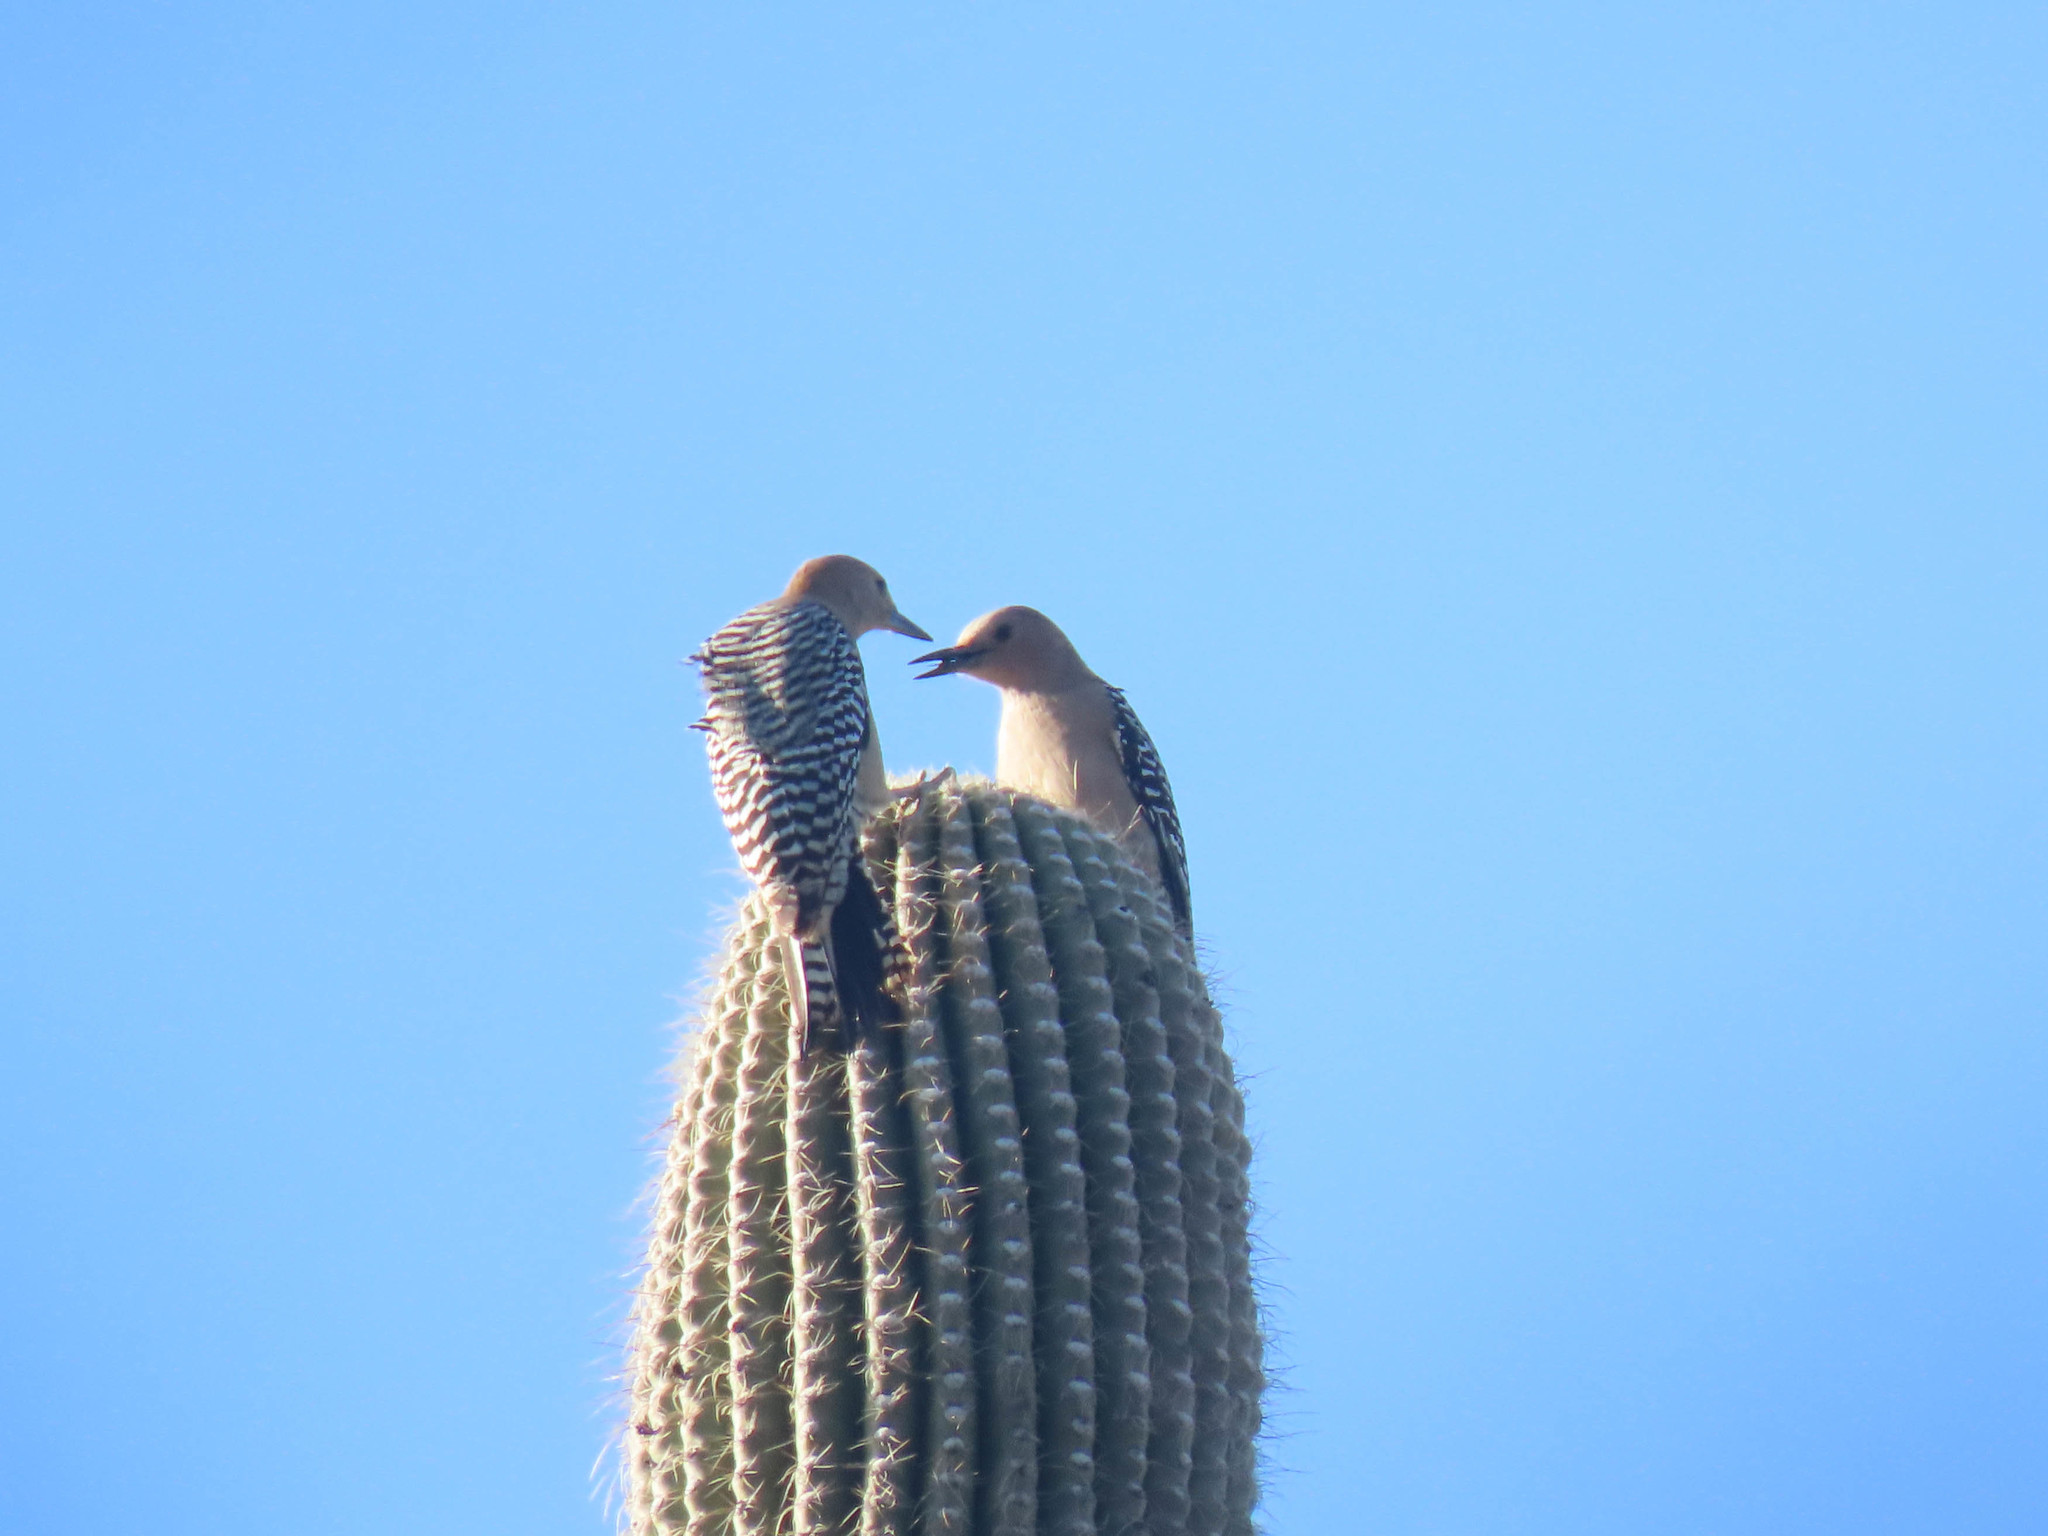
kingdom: Animalia
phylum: Chordata
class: Aves
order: Piciformes
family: Picidae
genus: Melanerpes
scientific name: Melanerpes uropygialis
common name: Gila woodpecker
